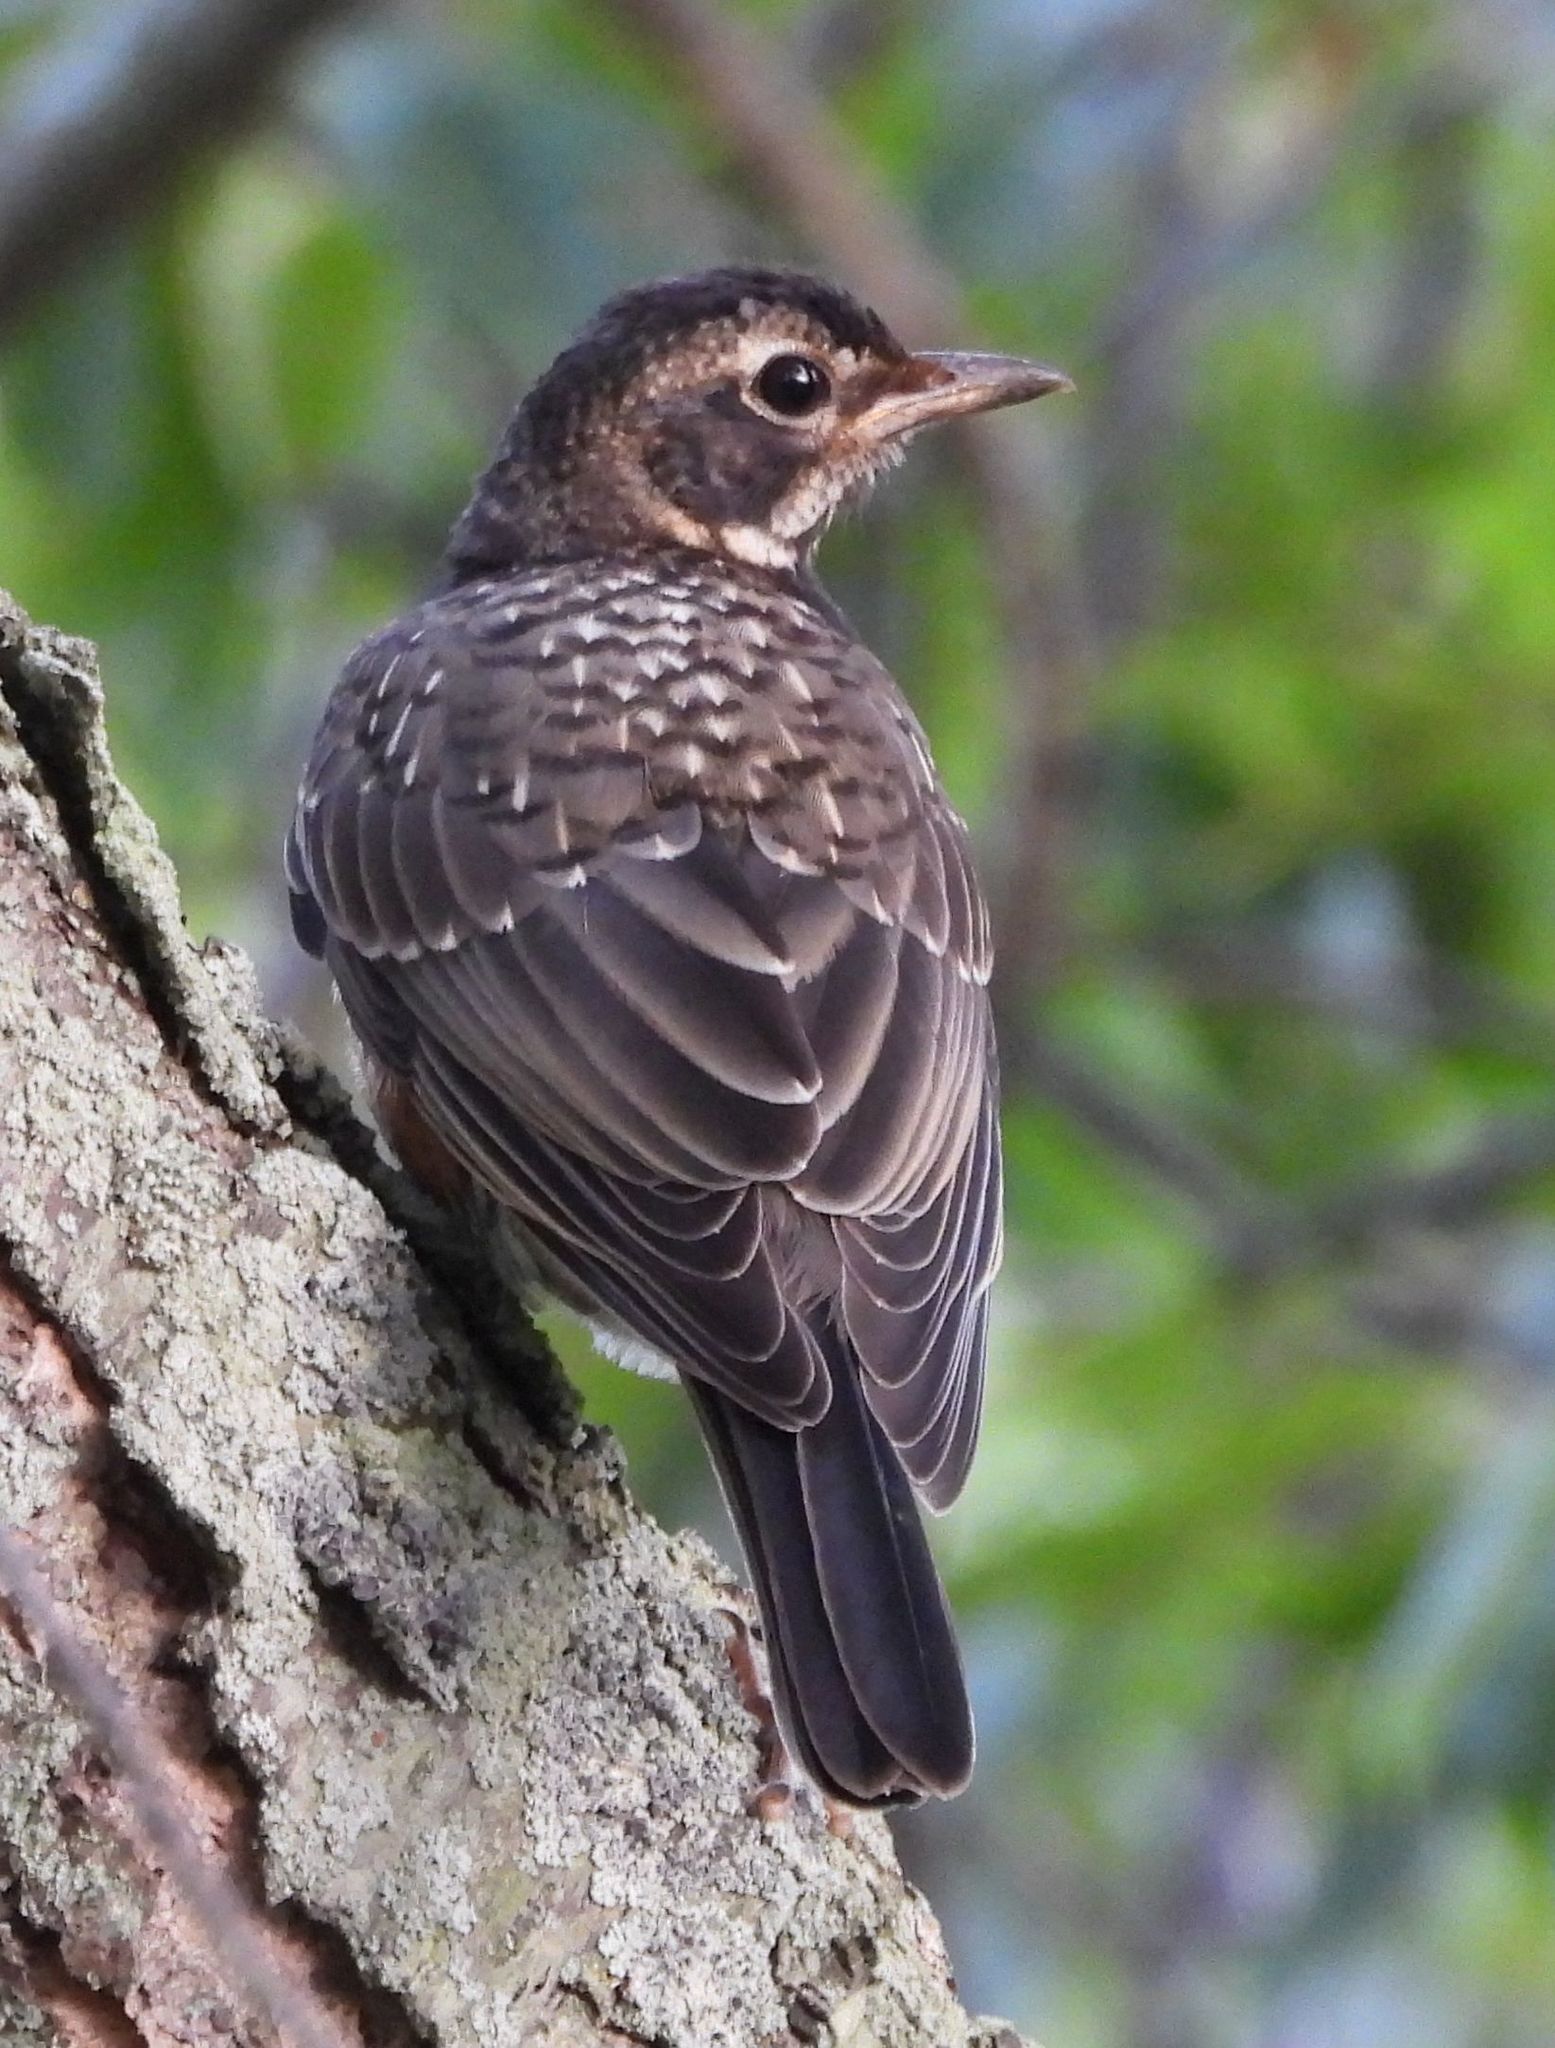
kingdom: Animalia
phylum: Chordata
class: Aves
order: Passeriformes
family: Turdidae
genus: Turdus
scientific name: Turdus migratorius
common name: American robin
